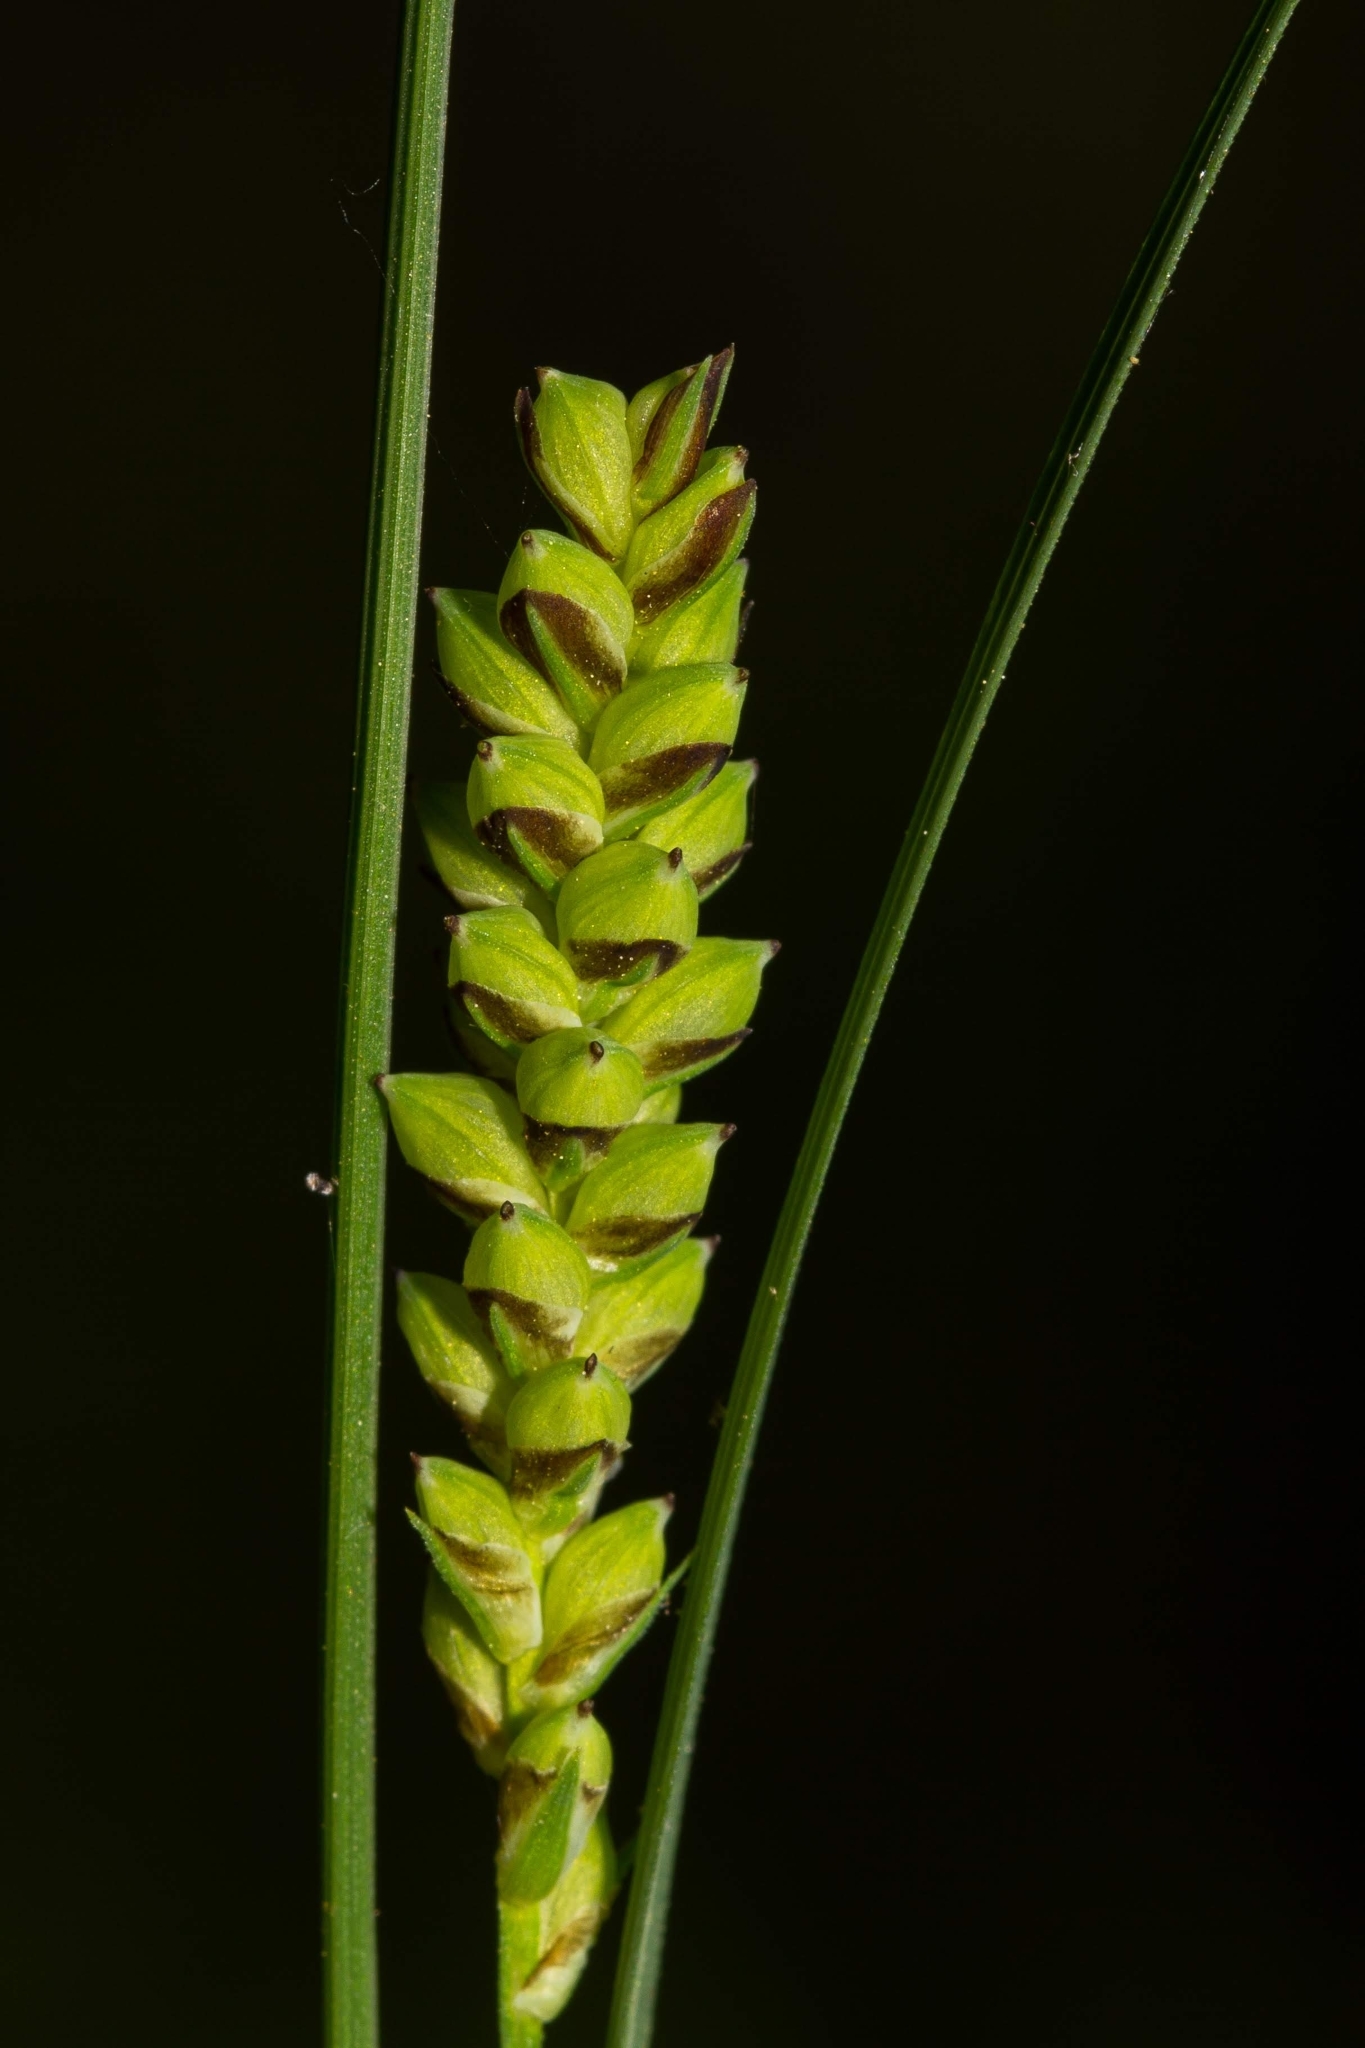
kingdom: Plantae
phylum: Tracheophyta
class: Liliopsida
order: Poales
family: Cyperaceae
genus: Carex
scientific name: Carex tetanica
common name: Rigid sedge
